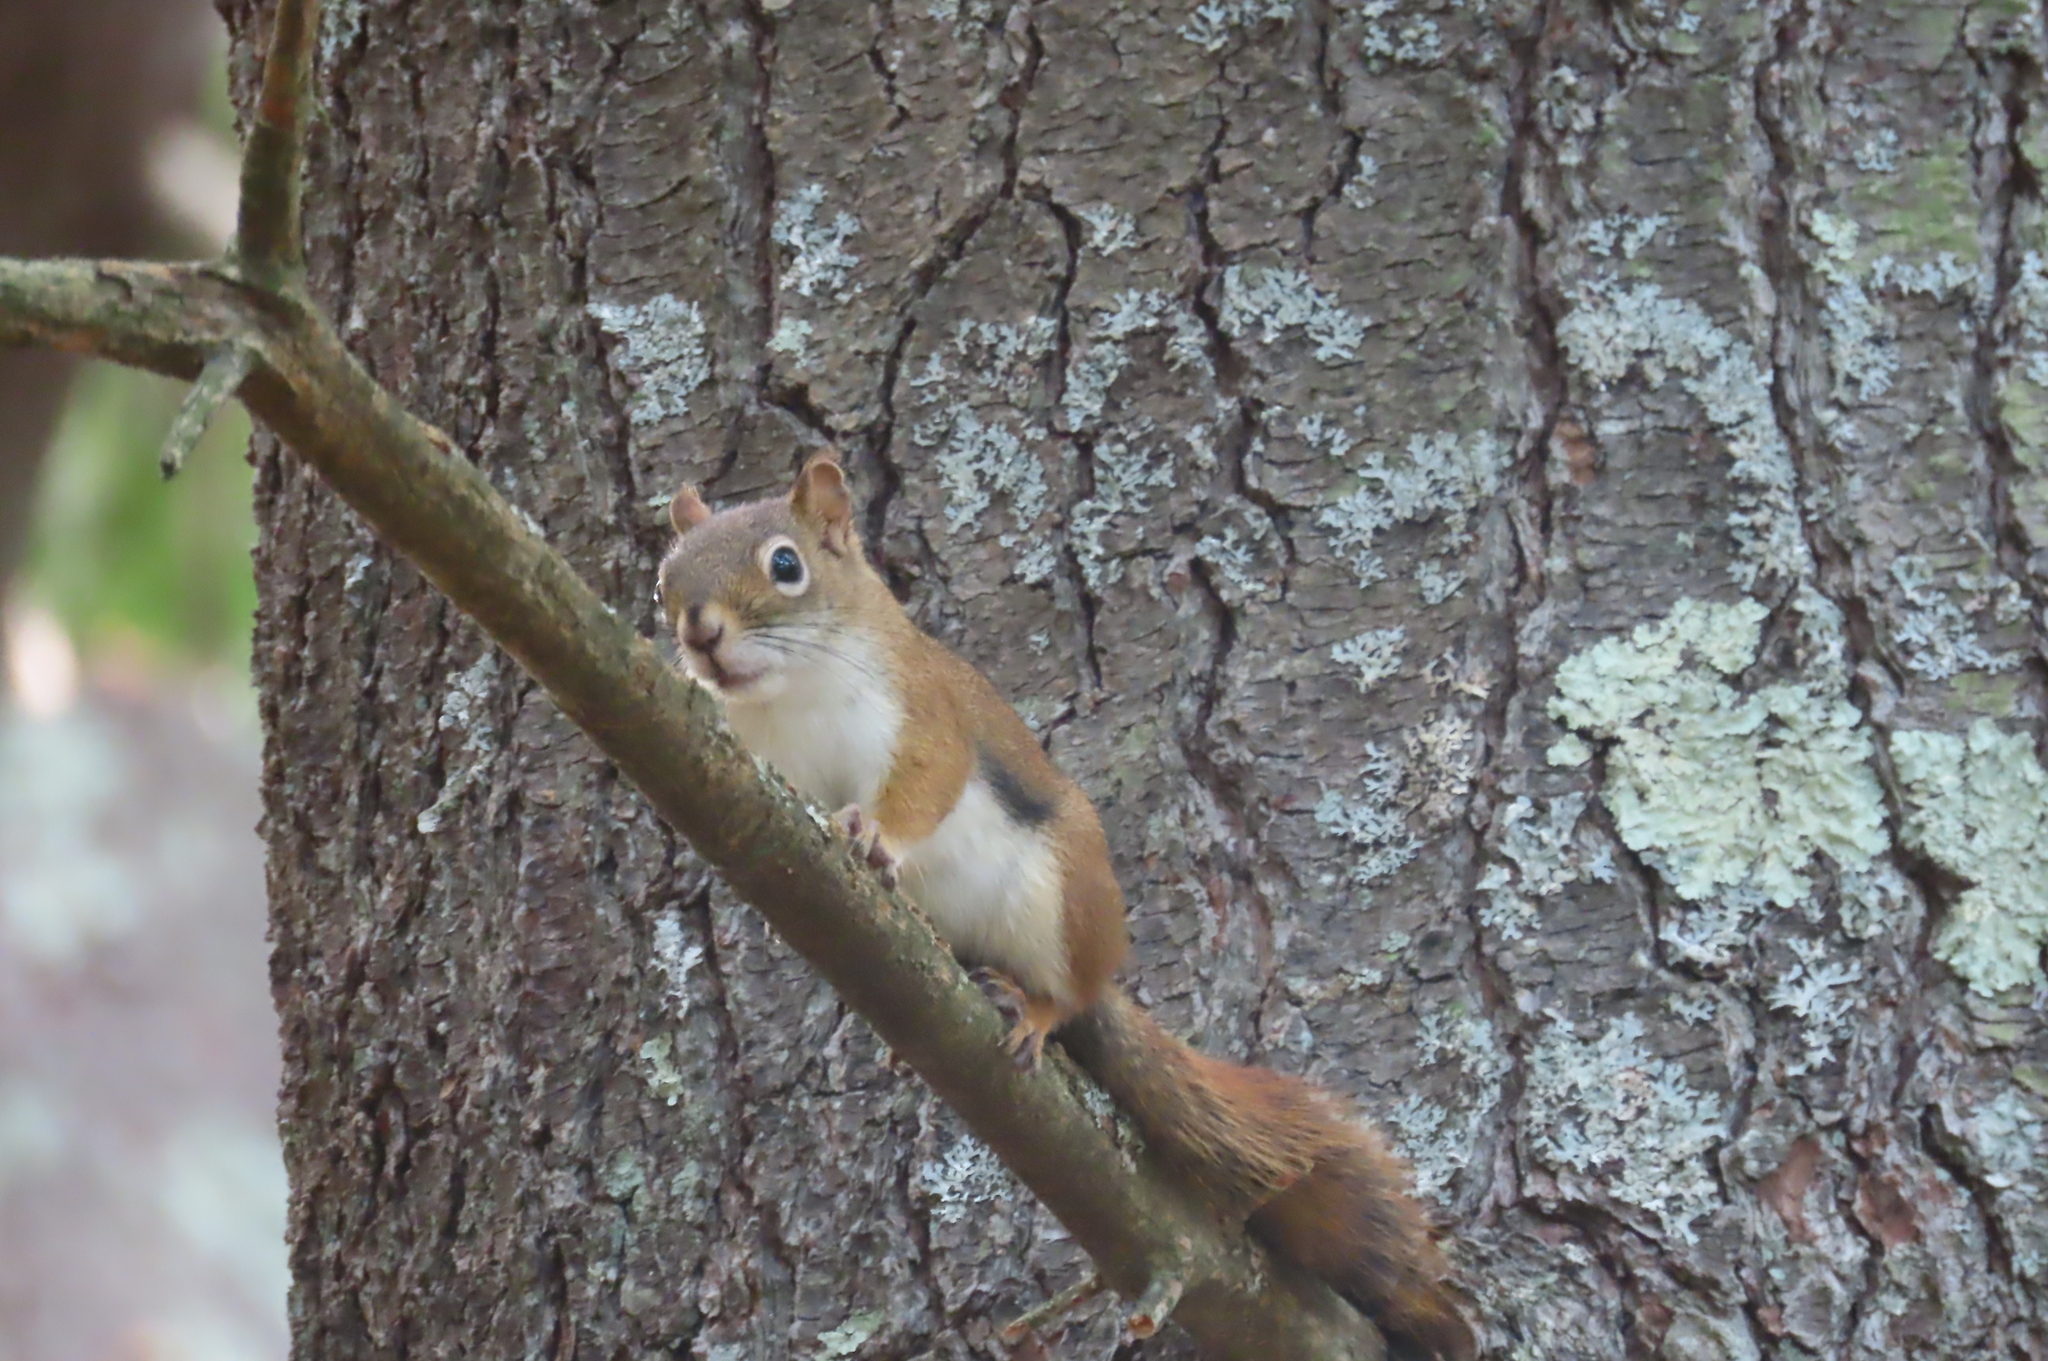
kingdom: Animalia
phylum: Chordata
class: Mammalia
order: Rodentia
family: Sciuridae
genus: Tamiasciurus
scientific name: Tamiasciurus hudsonicus
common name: Red squirrel
